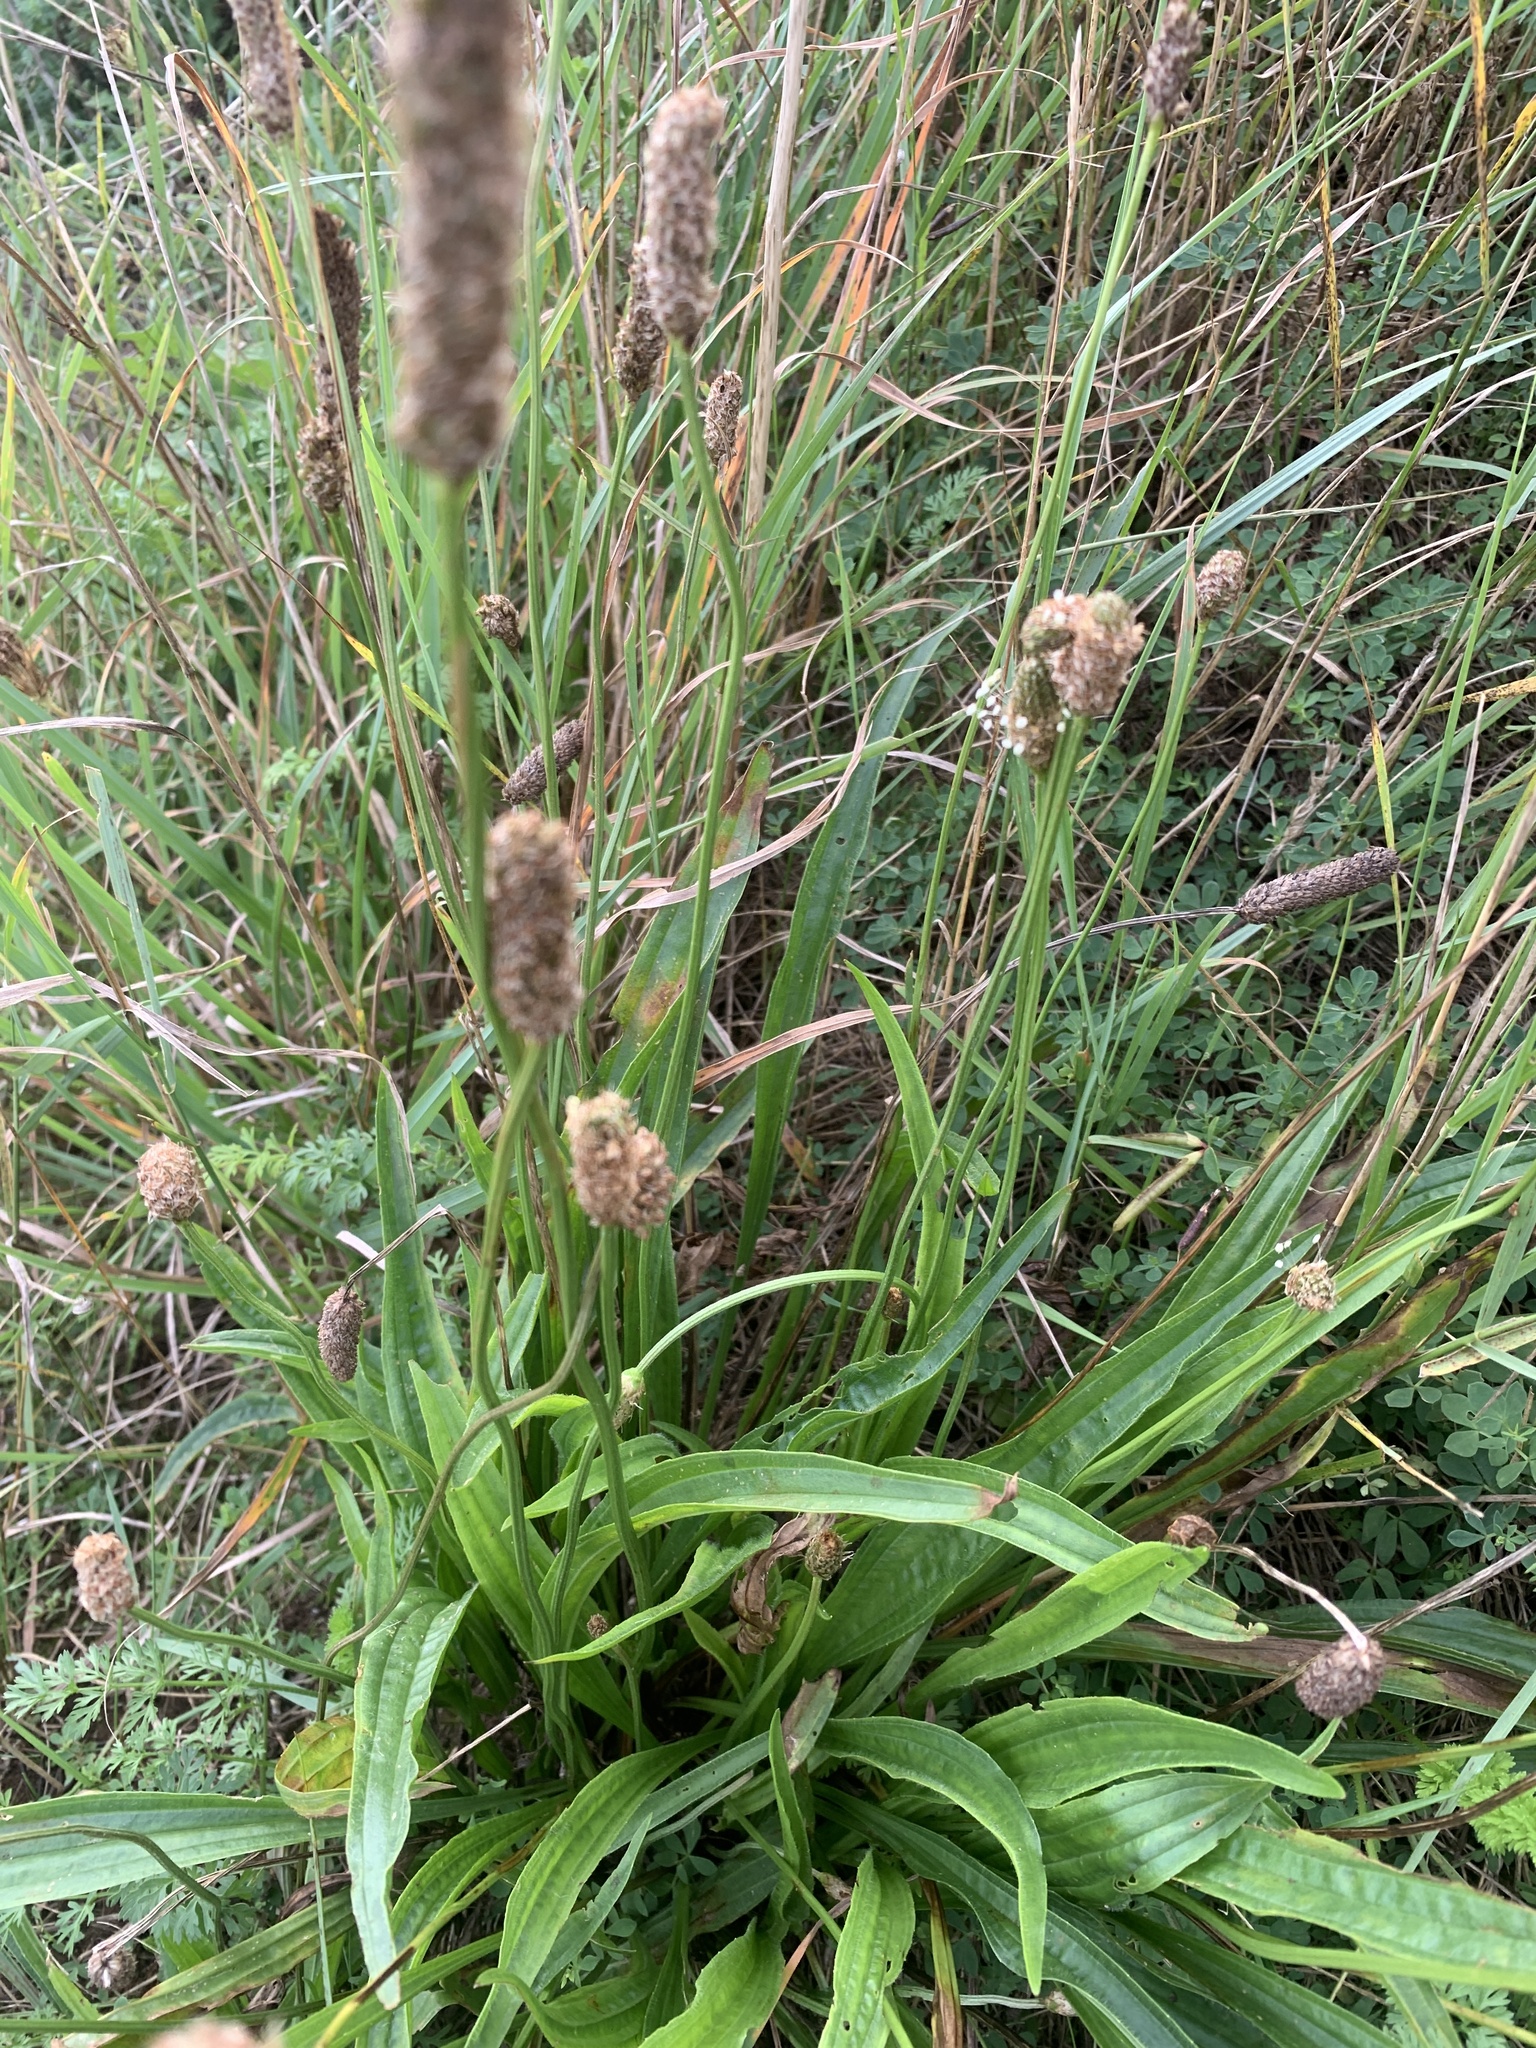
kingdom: Plantae
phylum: Tracheophyta
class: Magnoliopsida
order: Lamiales
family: Plantaginaceae
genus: Plantago
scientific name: Plantago lanceolata
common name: Ribwort plantain
